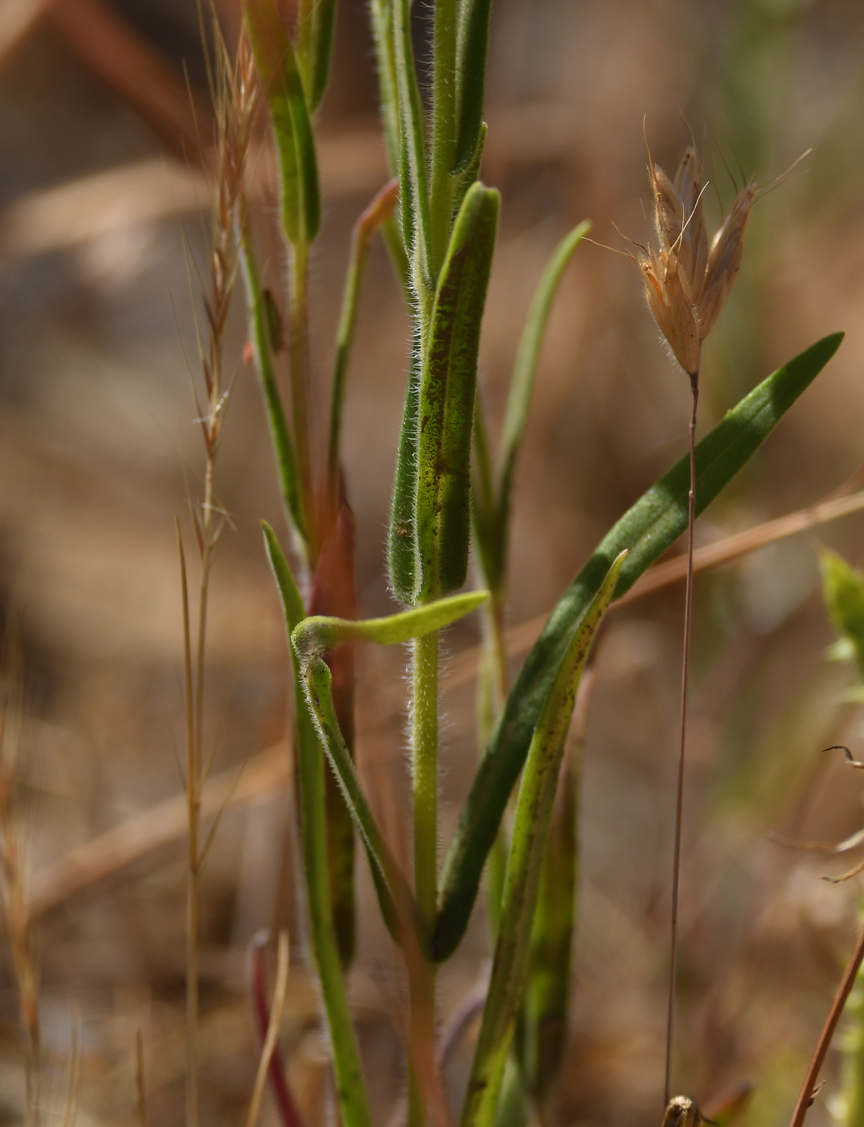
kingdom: Plantae
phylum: Tracheophyta
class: Magnoliopsida
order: Asterales
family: Asteraceae
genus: Madia
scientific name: Madia gracilis
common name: Grassy tarweed
